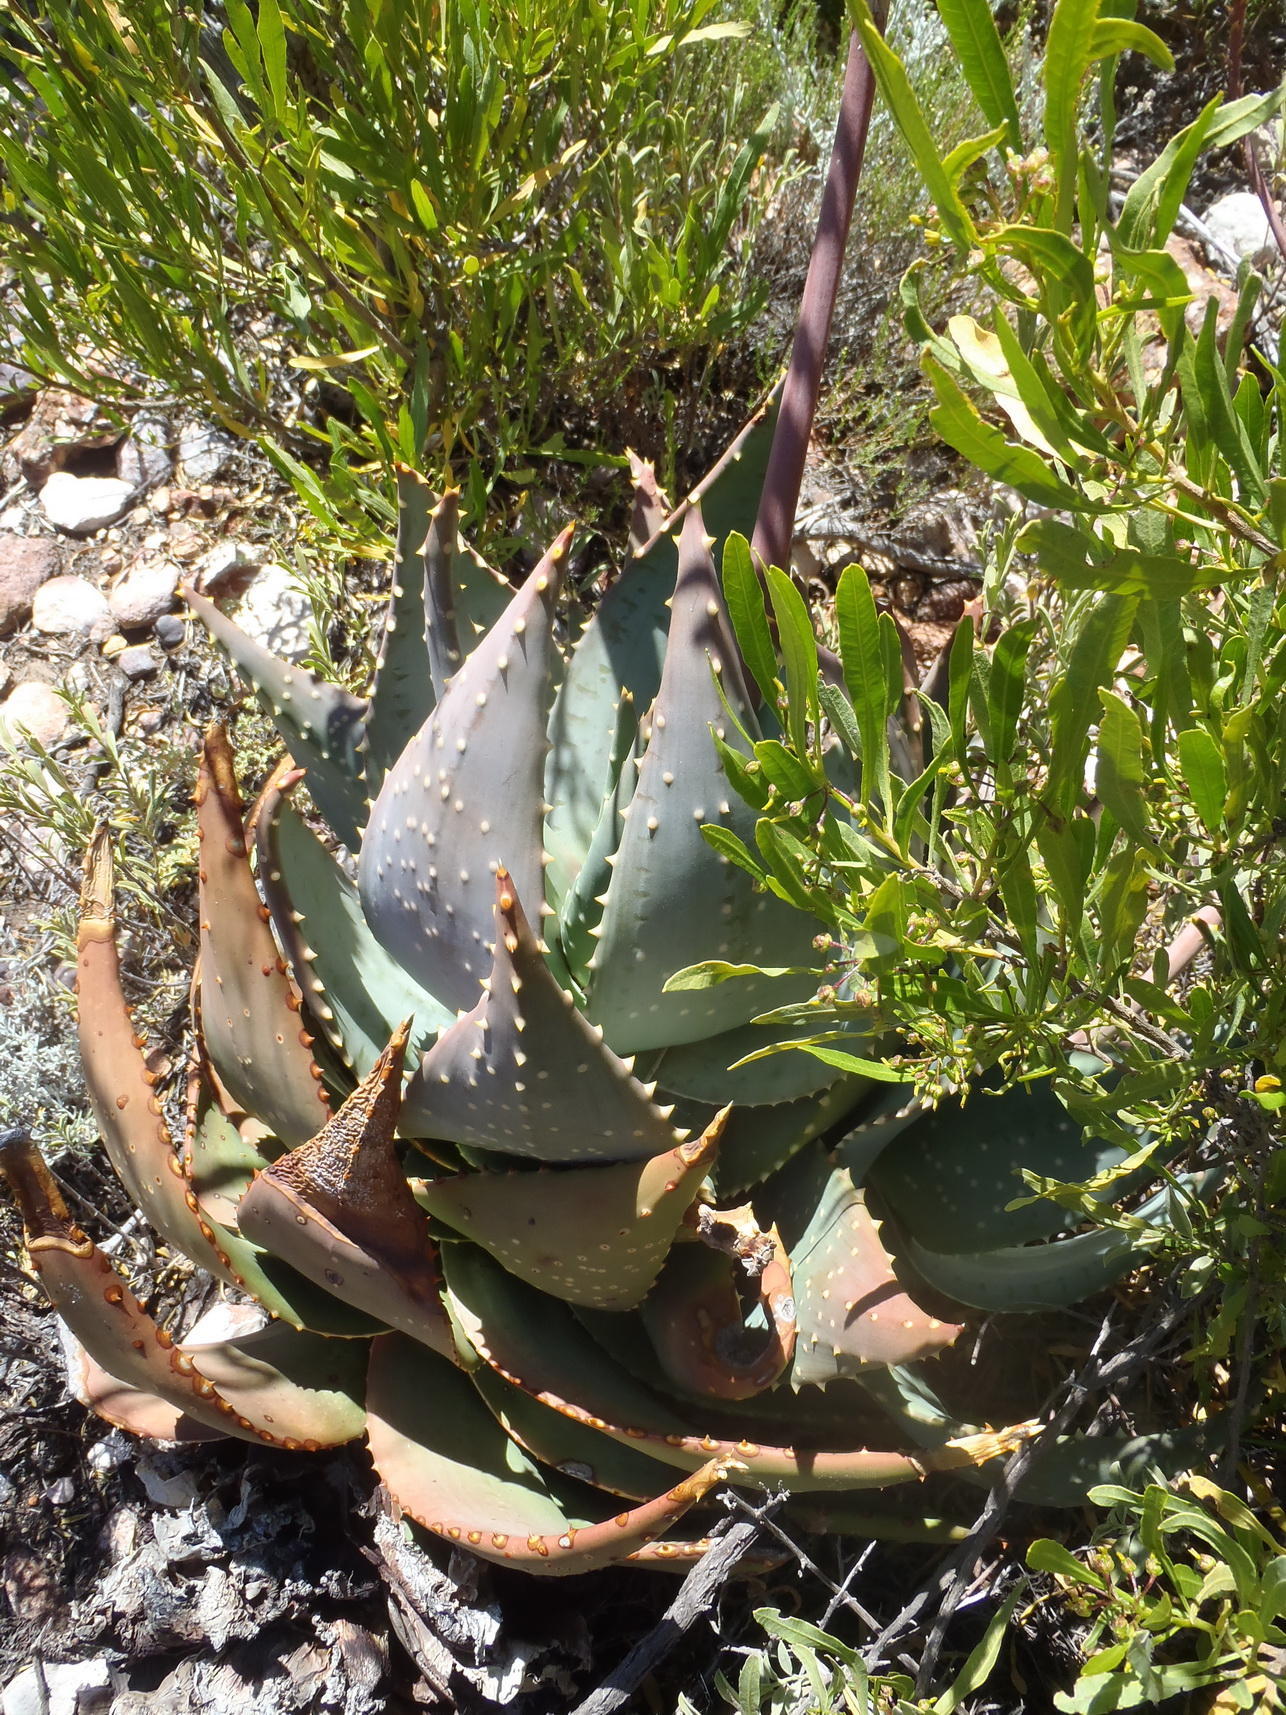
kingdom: Plantae
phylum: Tracheophyta
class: Liliopsida
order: Asparagales
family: Asphodelaceae
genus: Aloe
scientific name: Aloe perfoliata
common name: Mitra aloe
